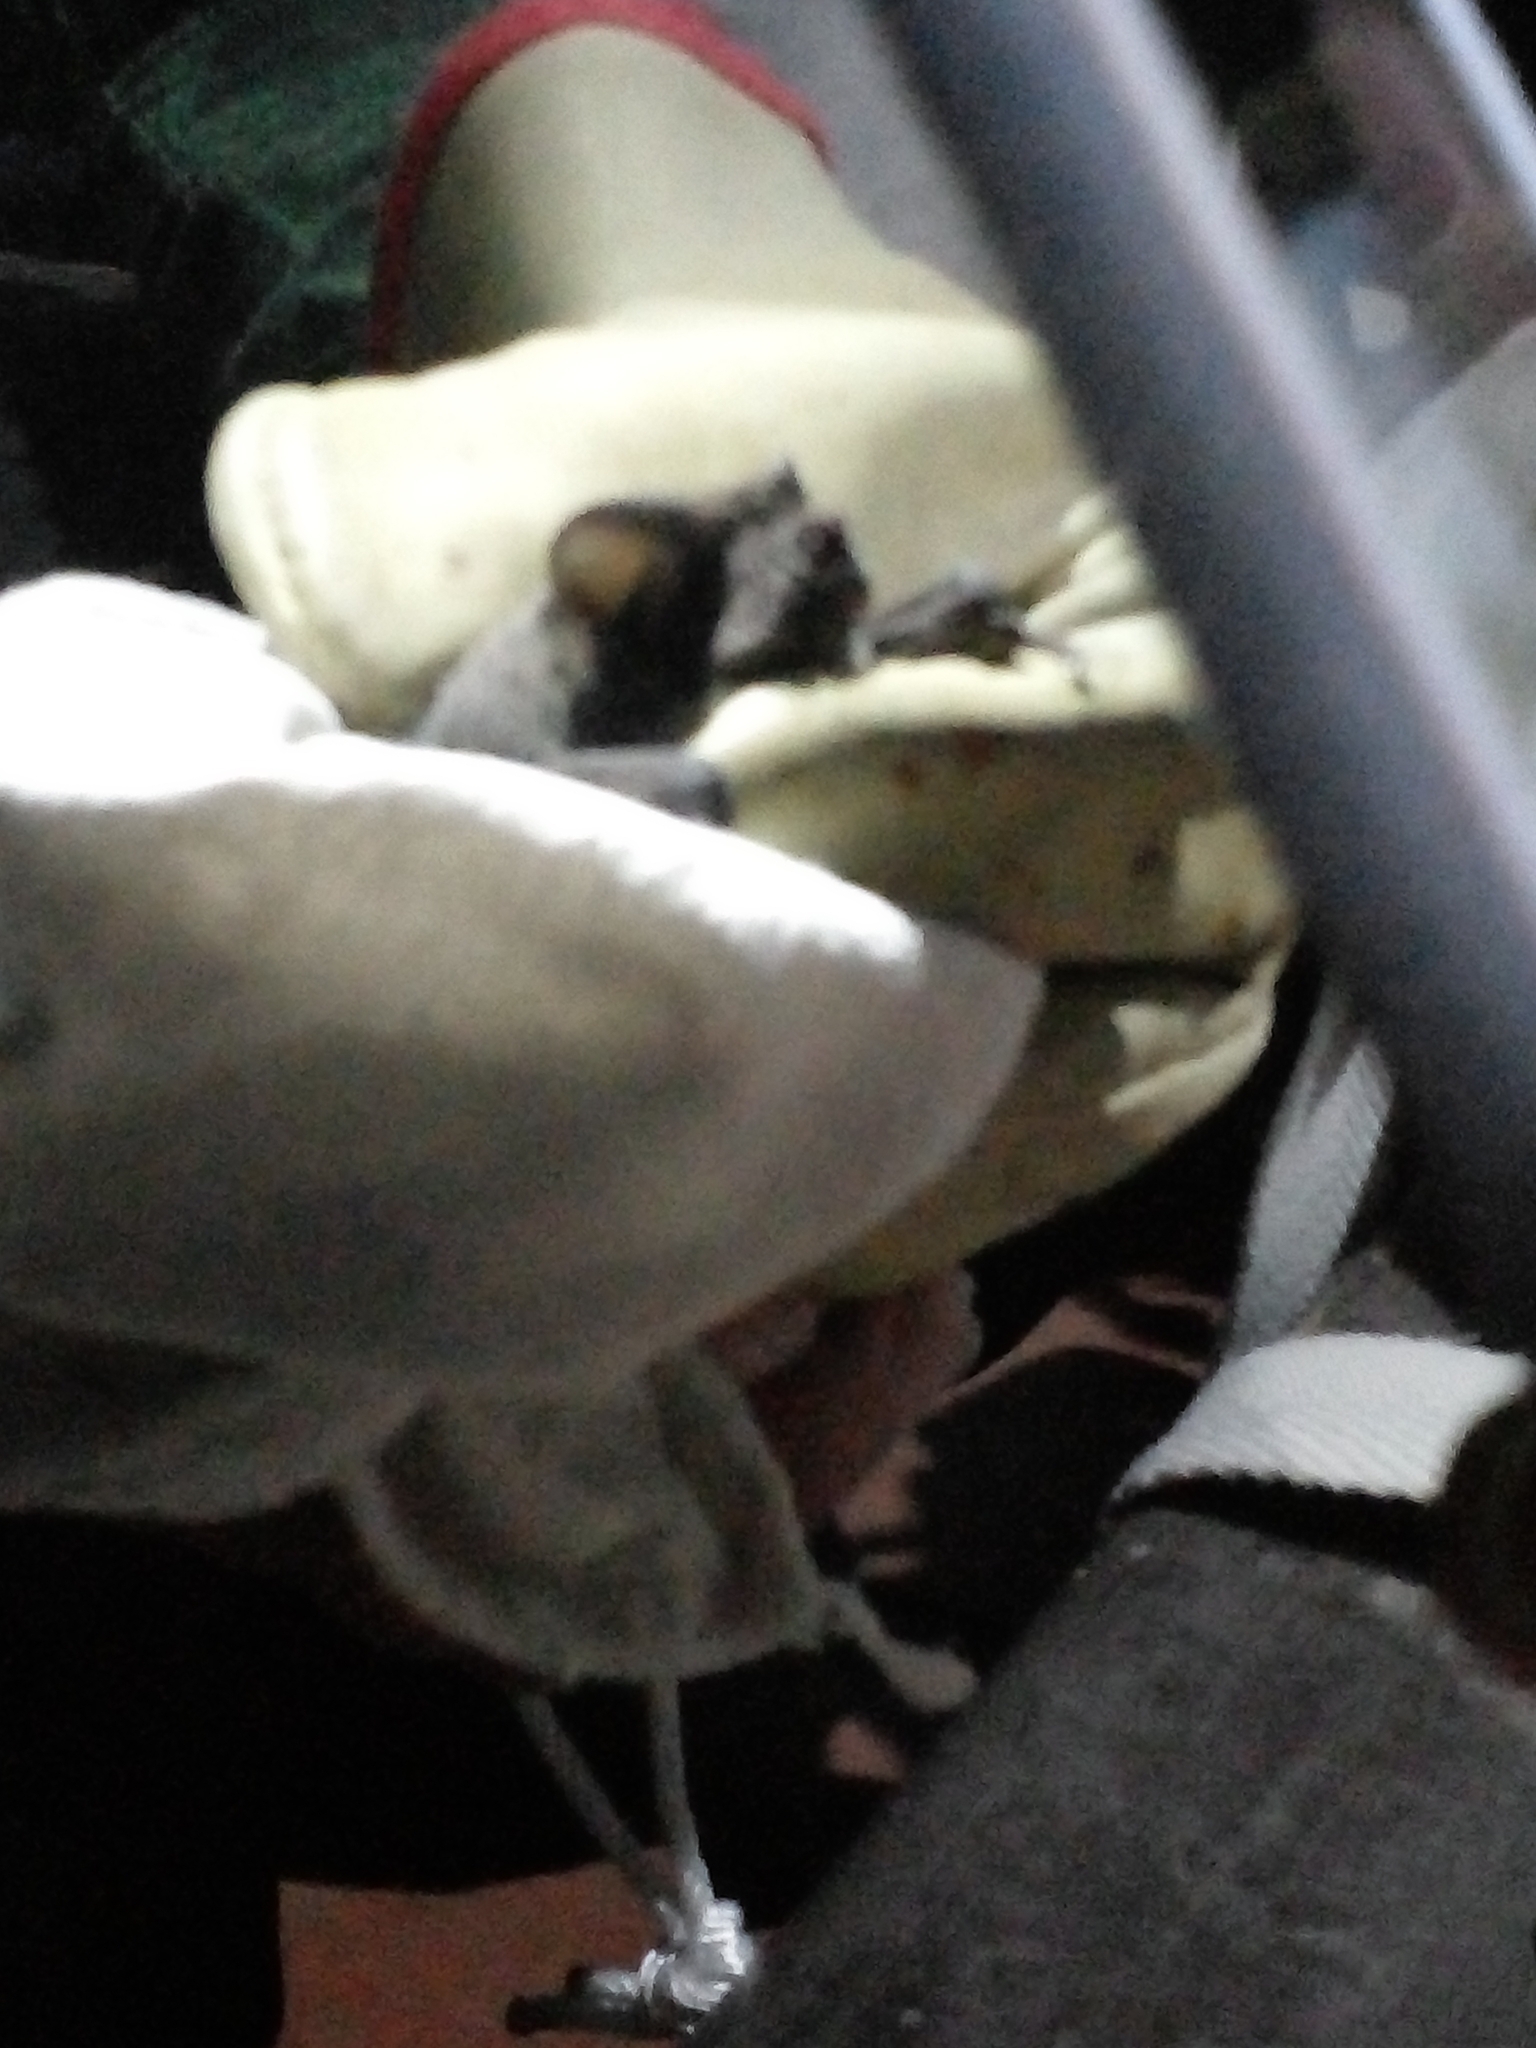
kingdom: Animalia
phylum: Chordata
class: Mammalia
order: Chiroptera
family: Molossidae
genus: Tadarida
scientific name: Tadarida brasiliensis
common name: Mexican free-tailed bat
